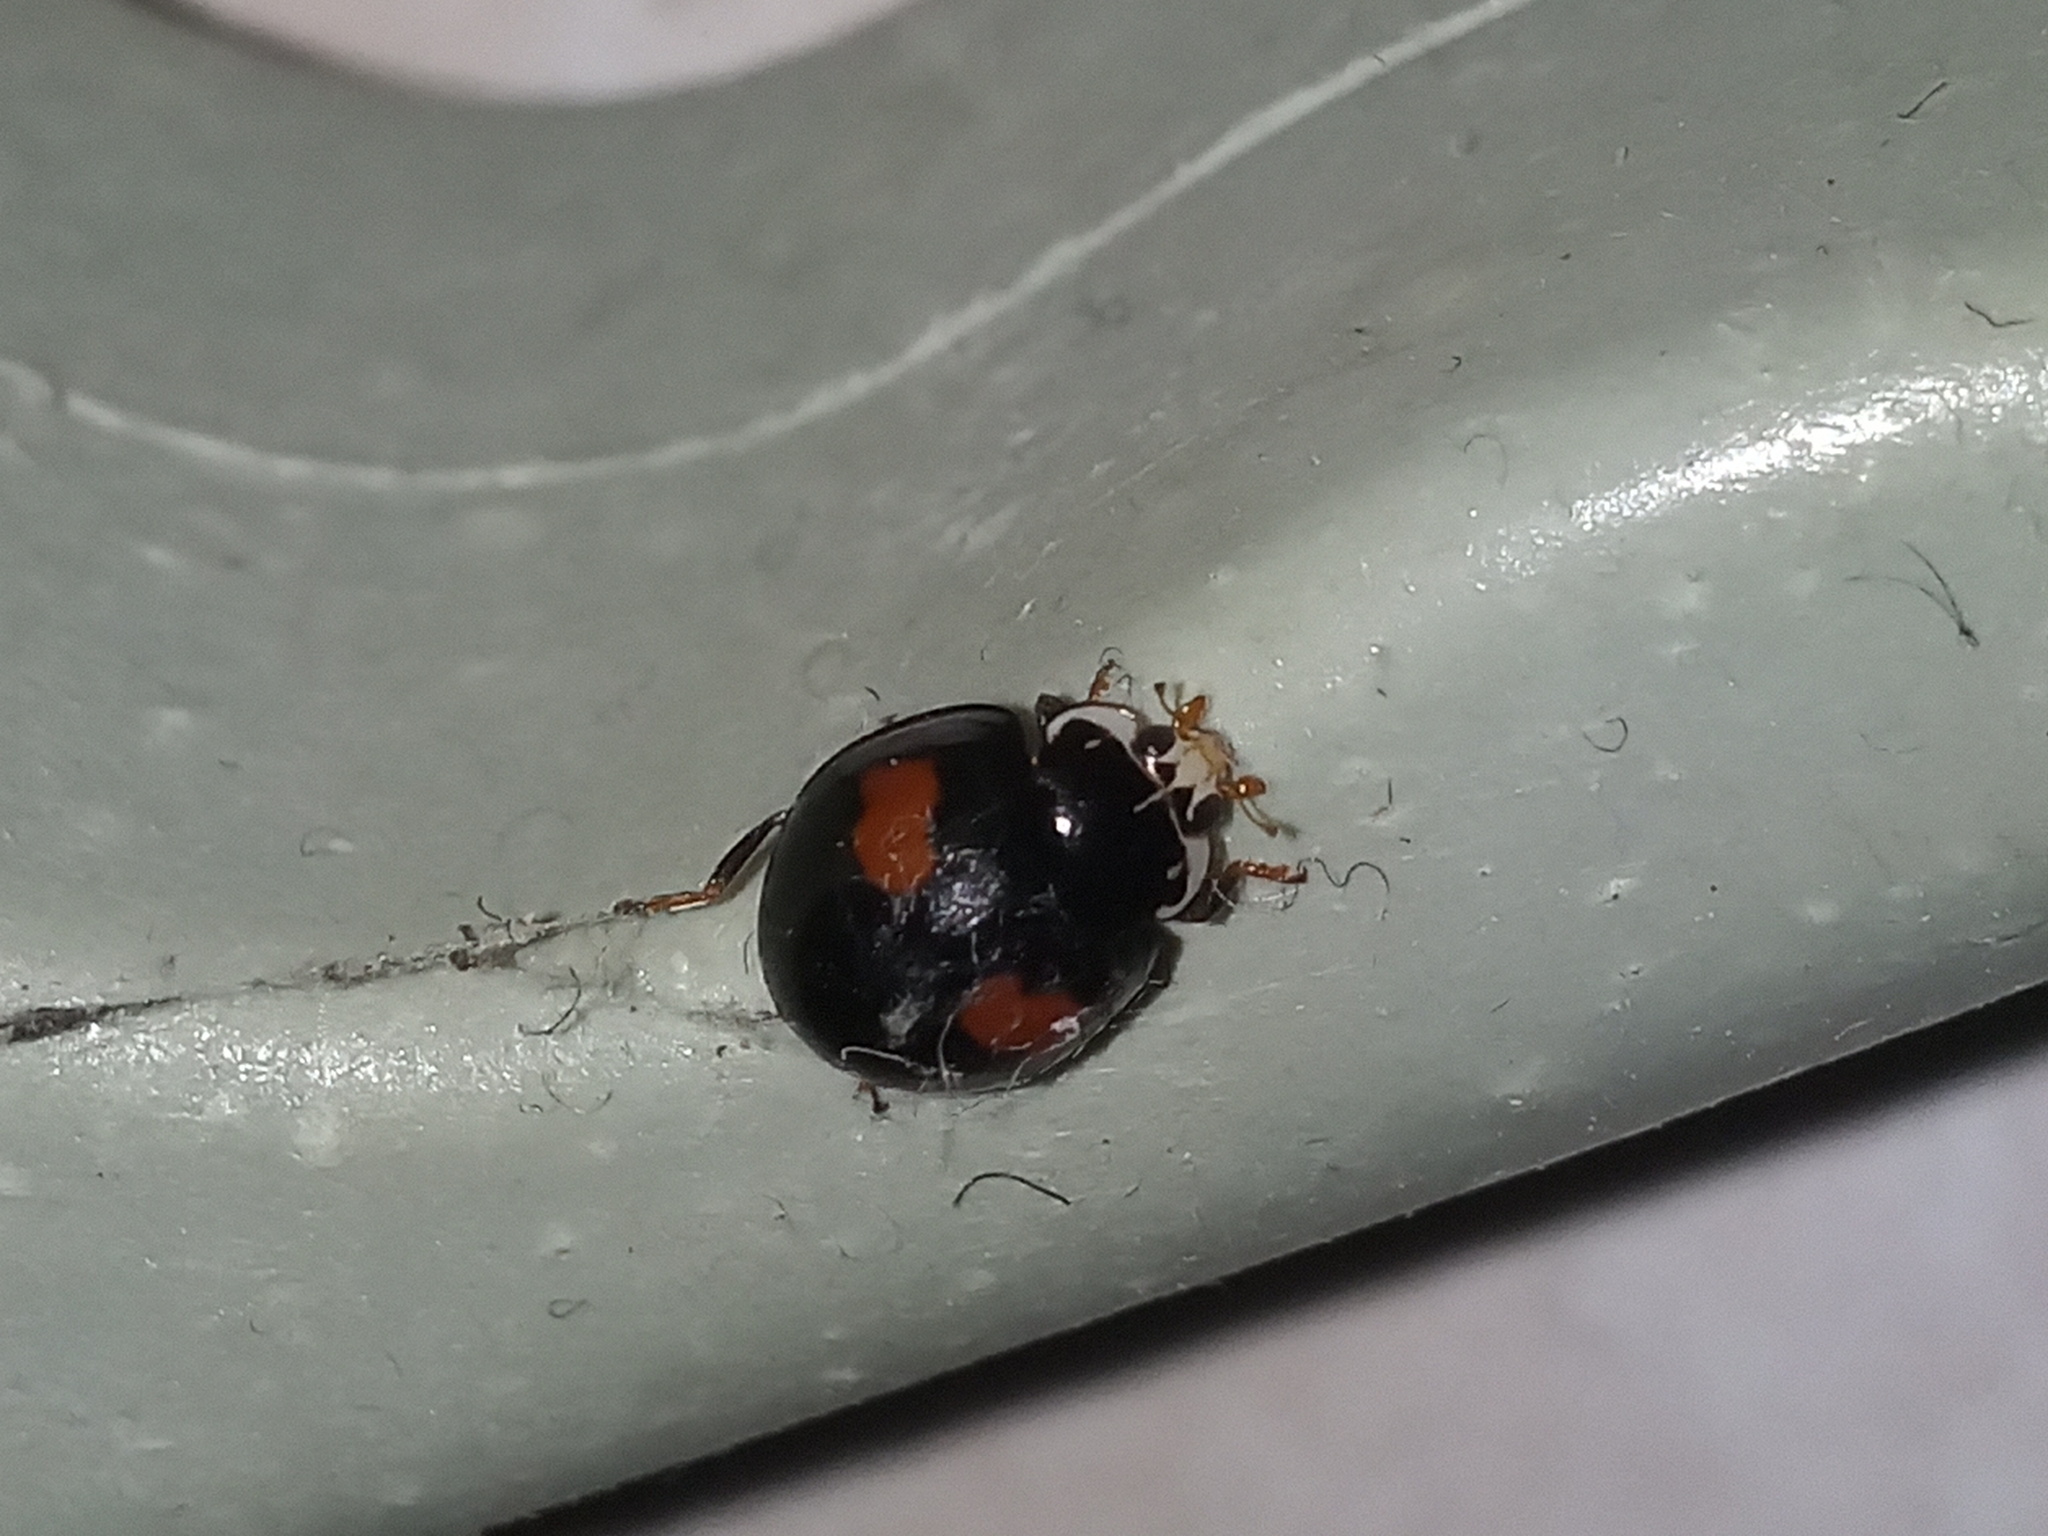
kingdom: Animalia
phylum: Arthropoda
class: Insecta
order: Coleoptera
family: Coccinellidae
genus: Olla
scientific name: Olla v-nigrum
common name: Ashy gray lady beetle
